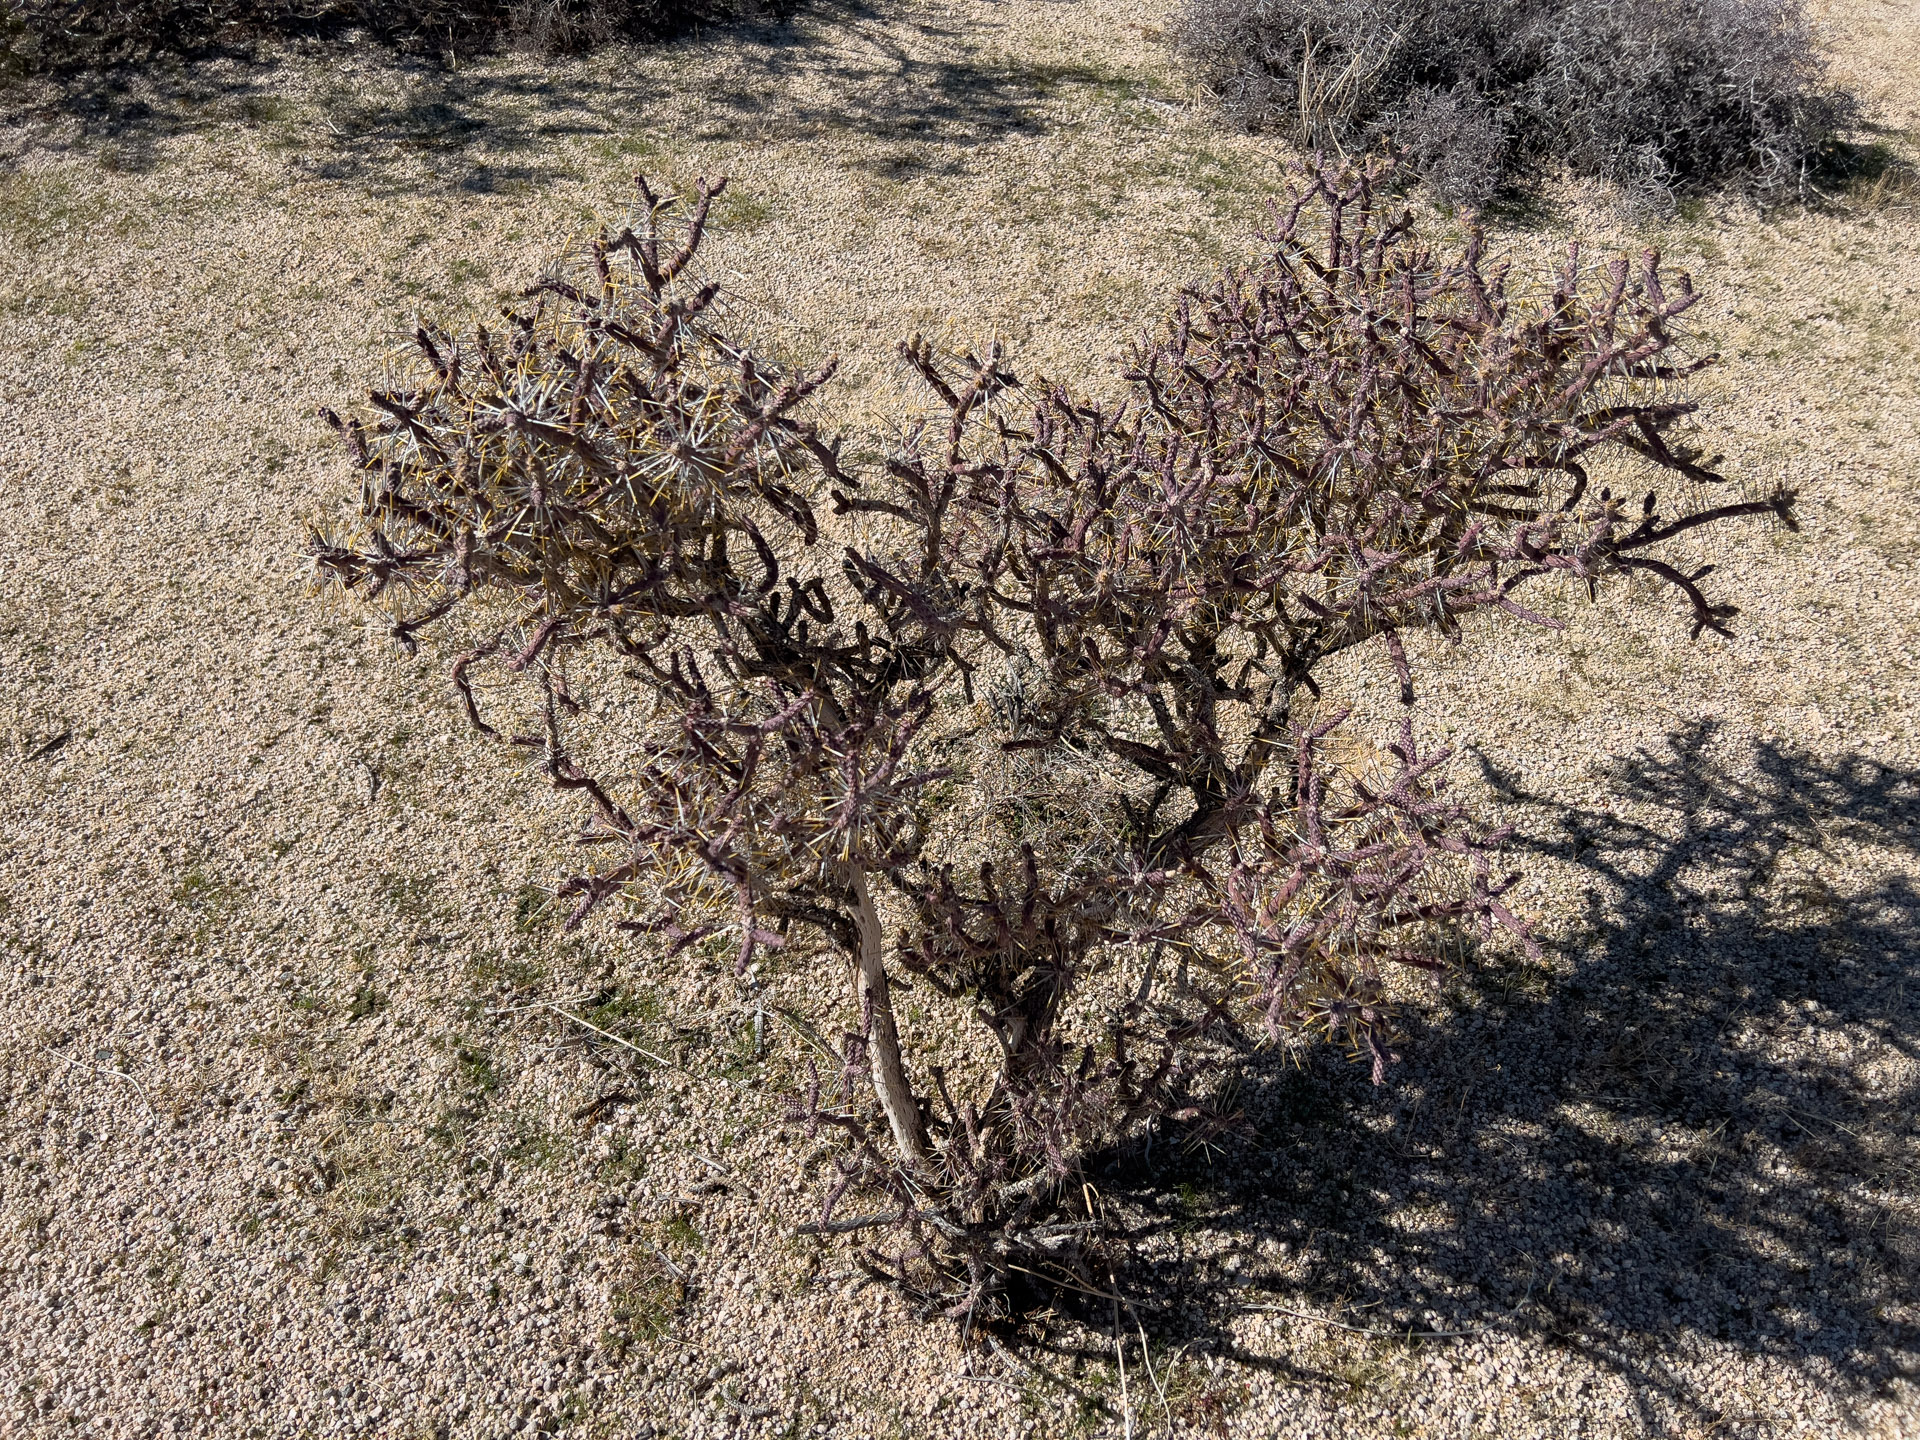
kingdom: Plantae
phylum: Tracheophyta
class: Magnoliopsida
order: Caryophyllales
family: Cactaceae
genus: Cylindropuntia
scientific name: Cylindropuntia ramosissima
